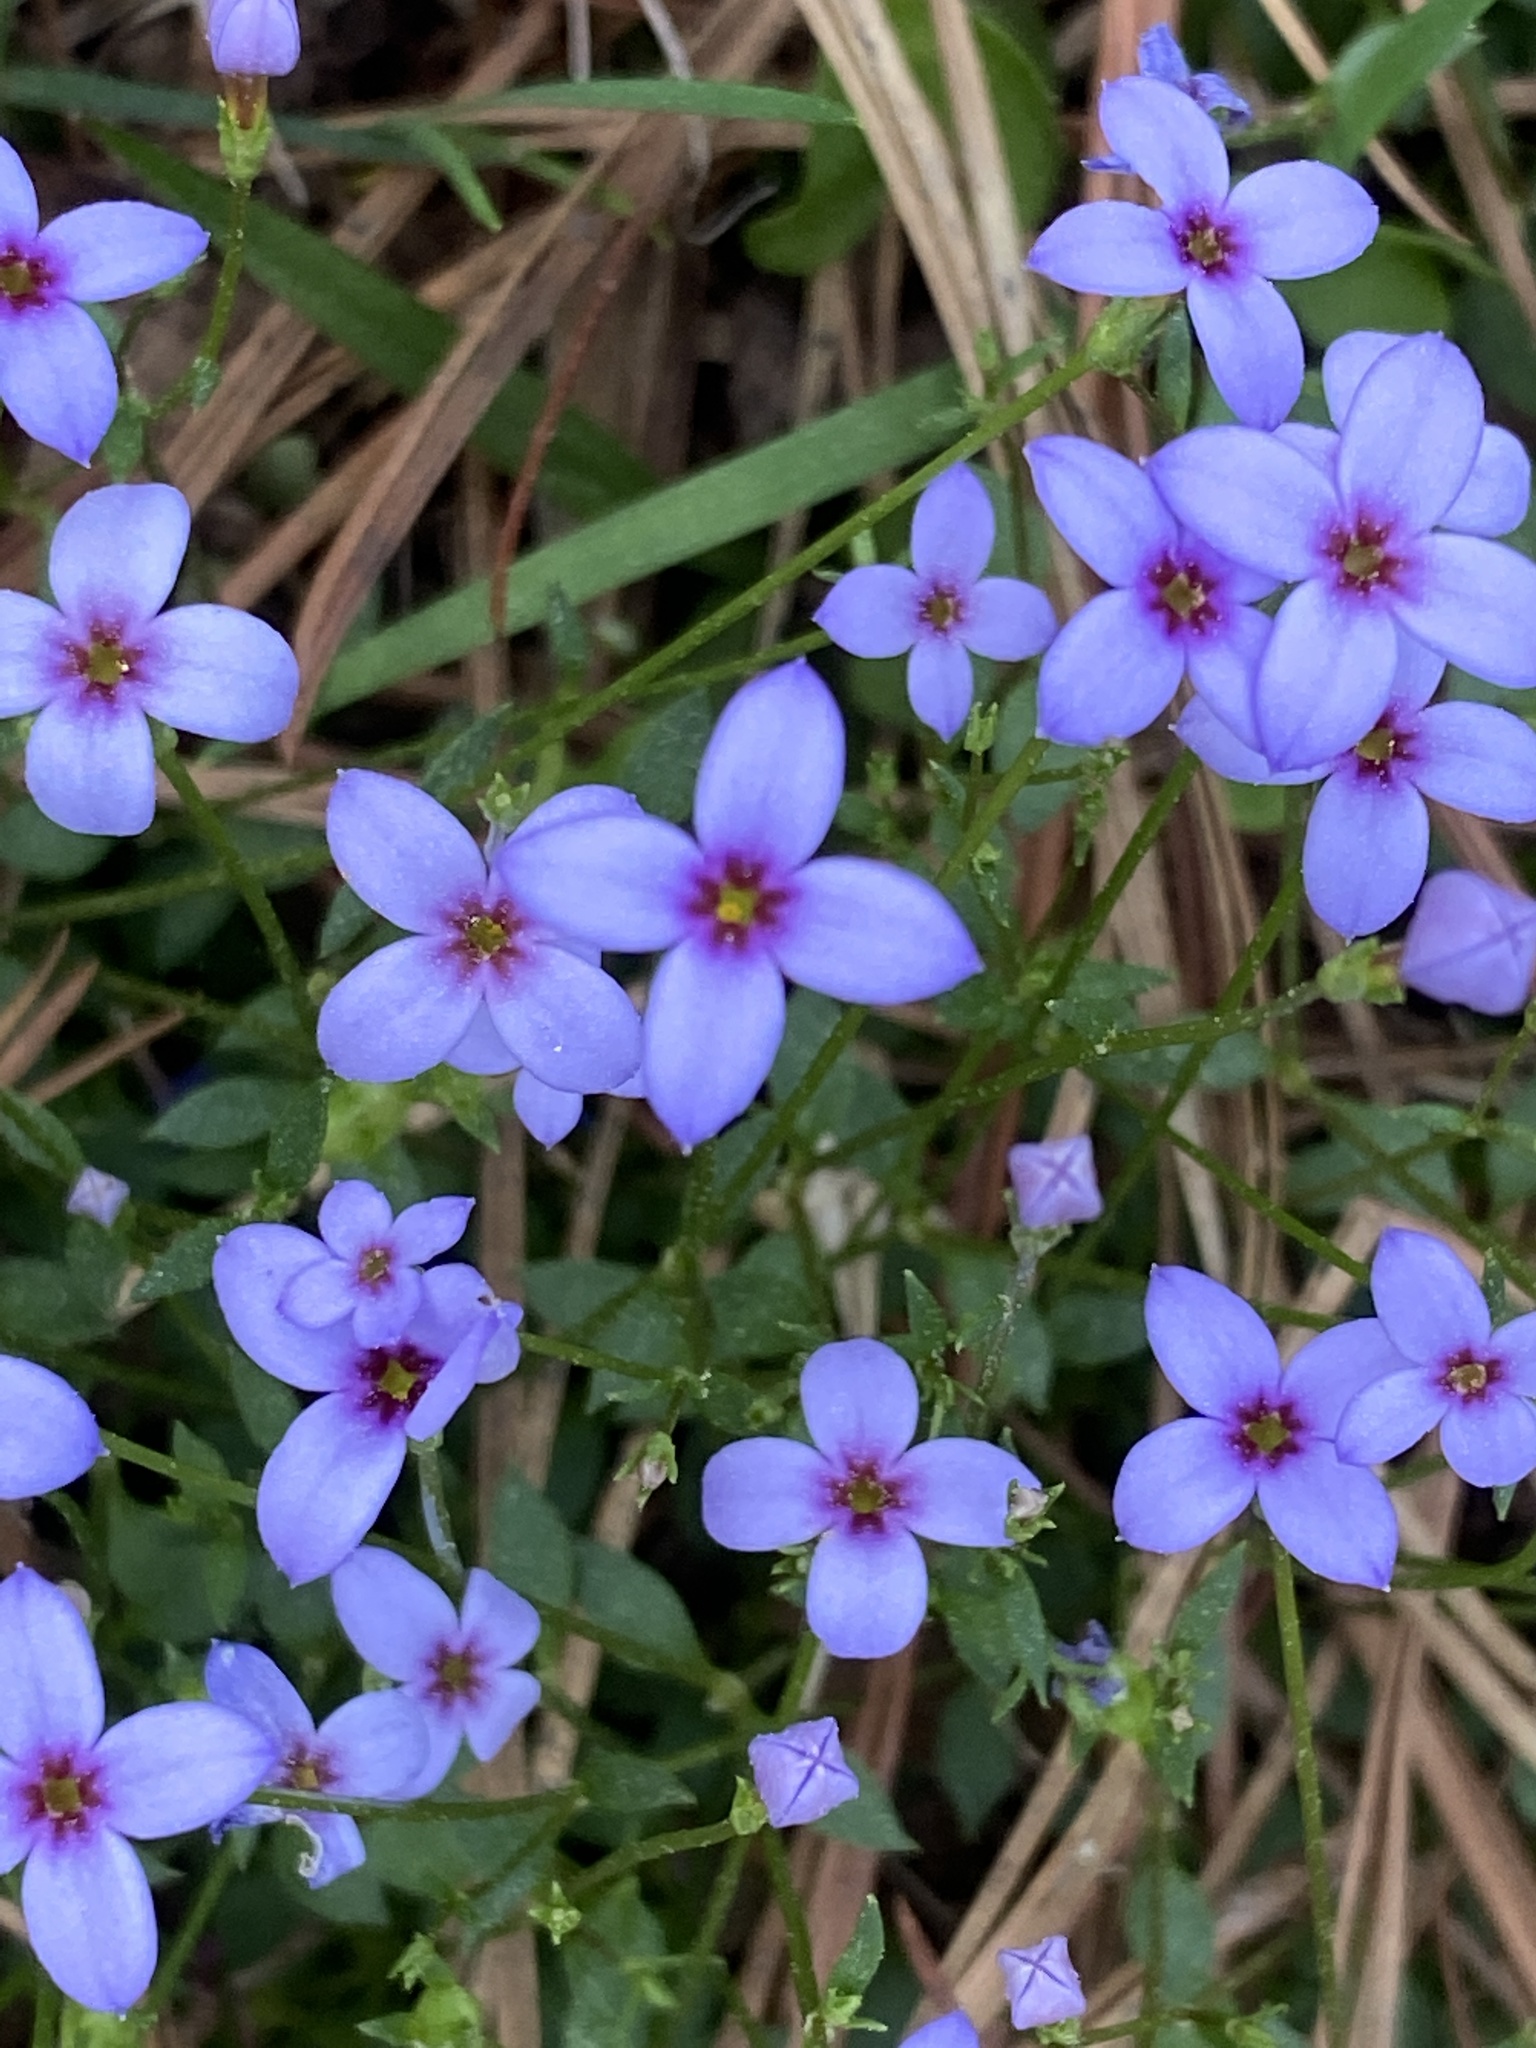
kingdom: Plantae
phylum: Tracheophyta
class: Magnoliopsida
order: Gentianales
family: Rubiaceae
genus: Houstonia
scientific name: Houstonia pusilla
